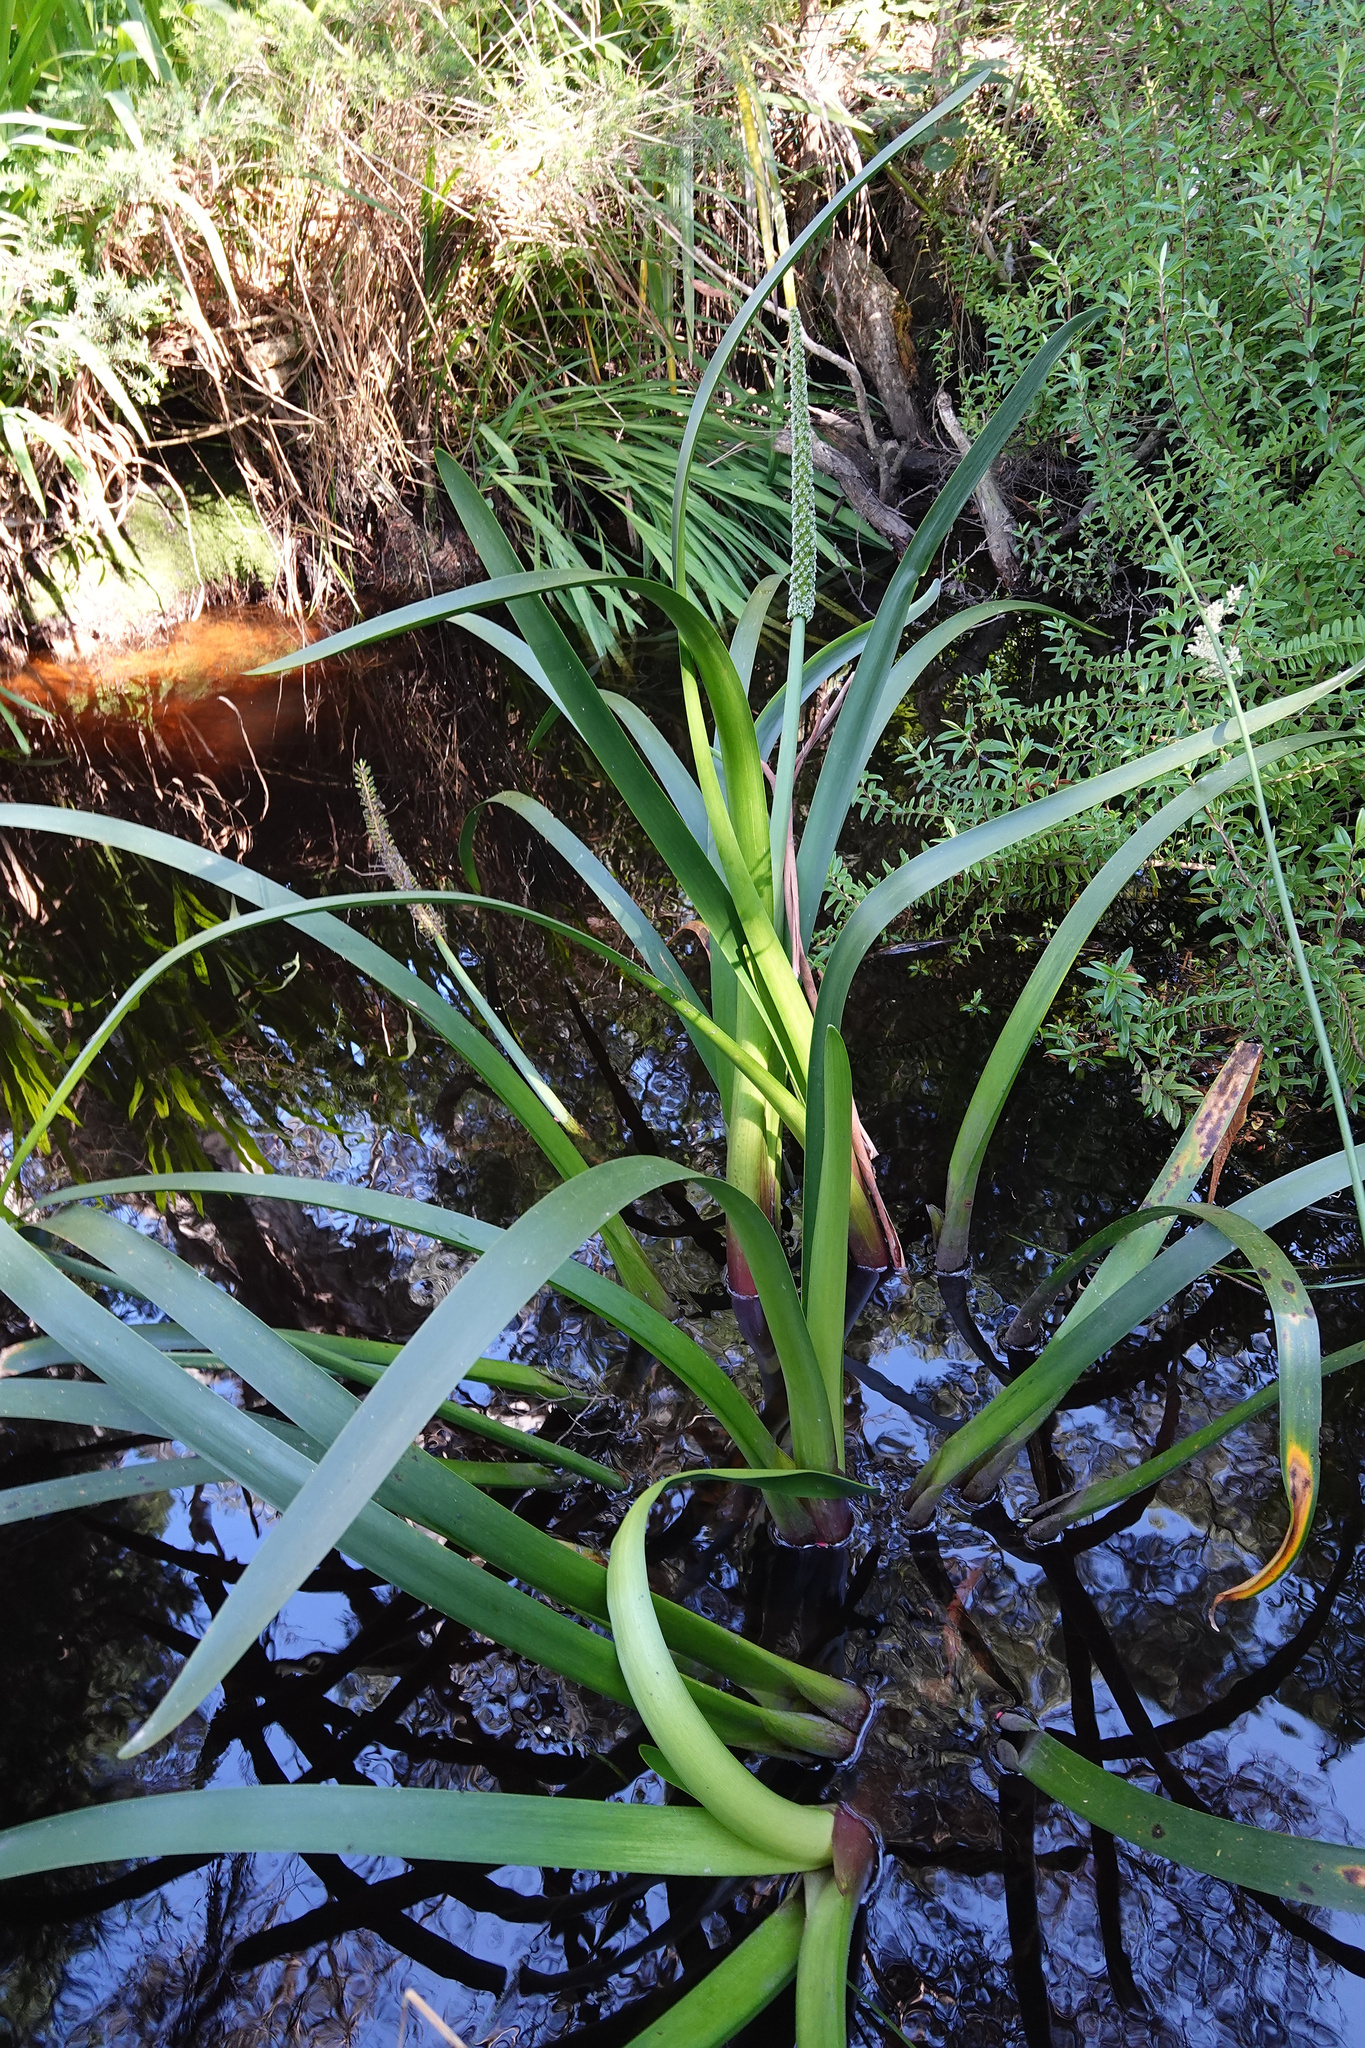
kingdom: Plantae
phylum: Tracheophyta
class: Liliopsida
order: Alismatales
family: Juncaginaceae
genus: Cycnogeton
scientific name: Cycnogeton procerum
